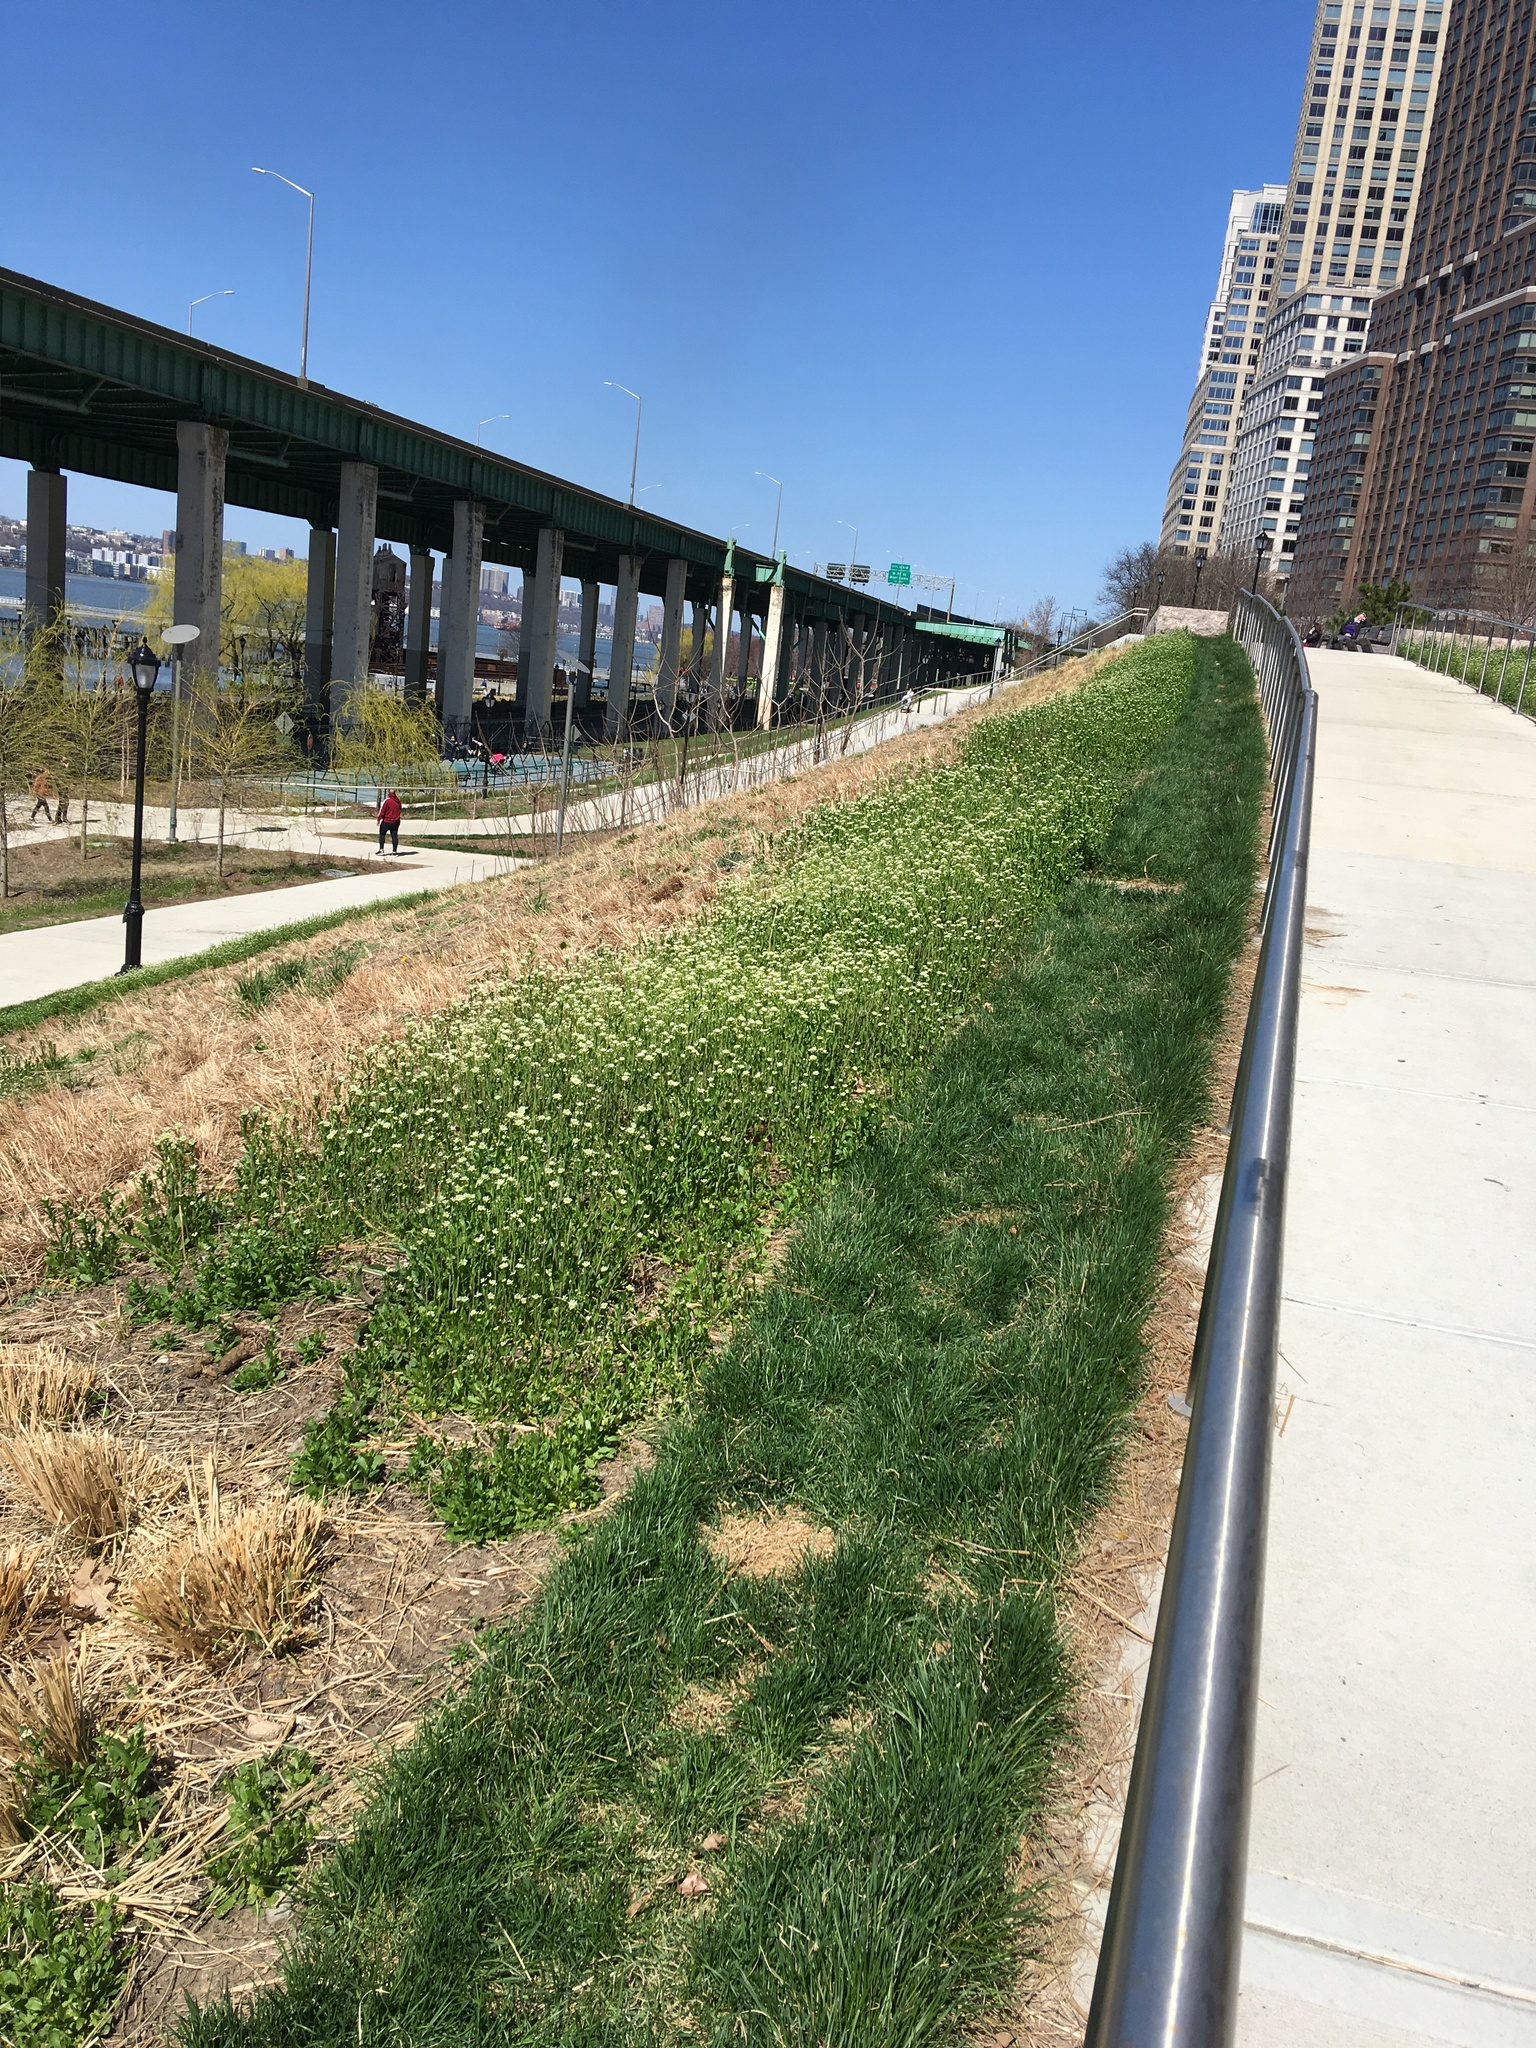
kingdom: Plantae
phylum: Tracheophyta
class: Magnoliopsida
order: Brassicales
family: Brassicaceae
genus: Mummenhoffia
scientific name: Mummenhoffia alliacea
